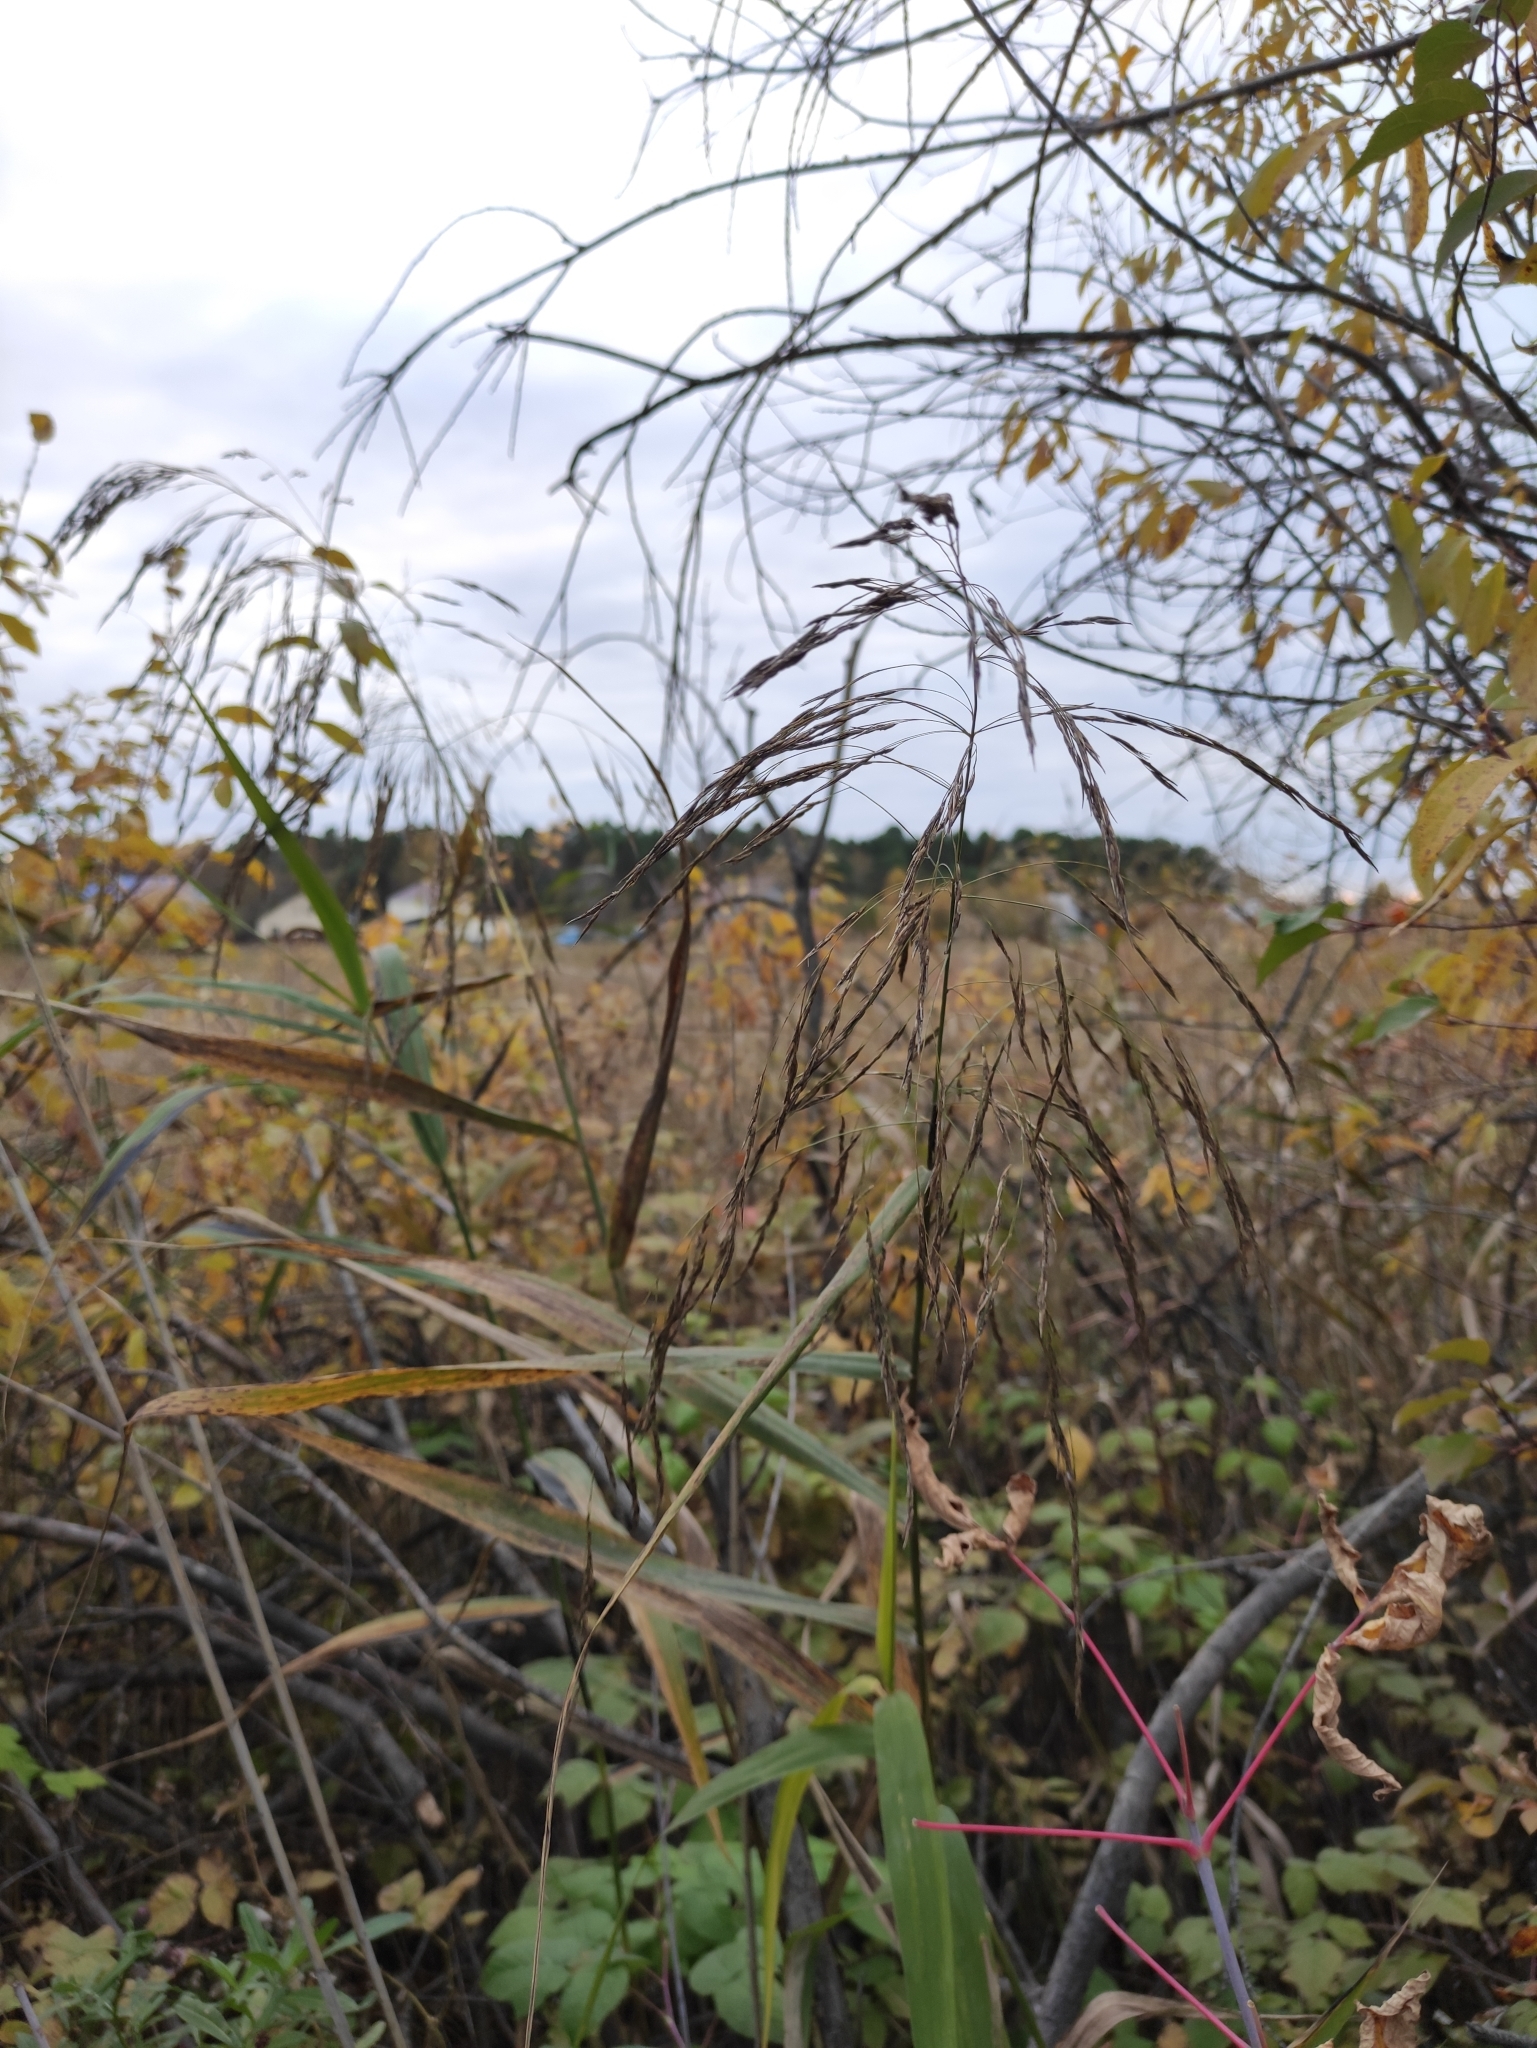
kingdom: Plantae
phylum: Tracheophyta
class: Liliopsida
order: Poales
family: Poaceae
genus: Phragmites
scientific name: Phragmites australis
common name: Common reed
